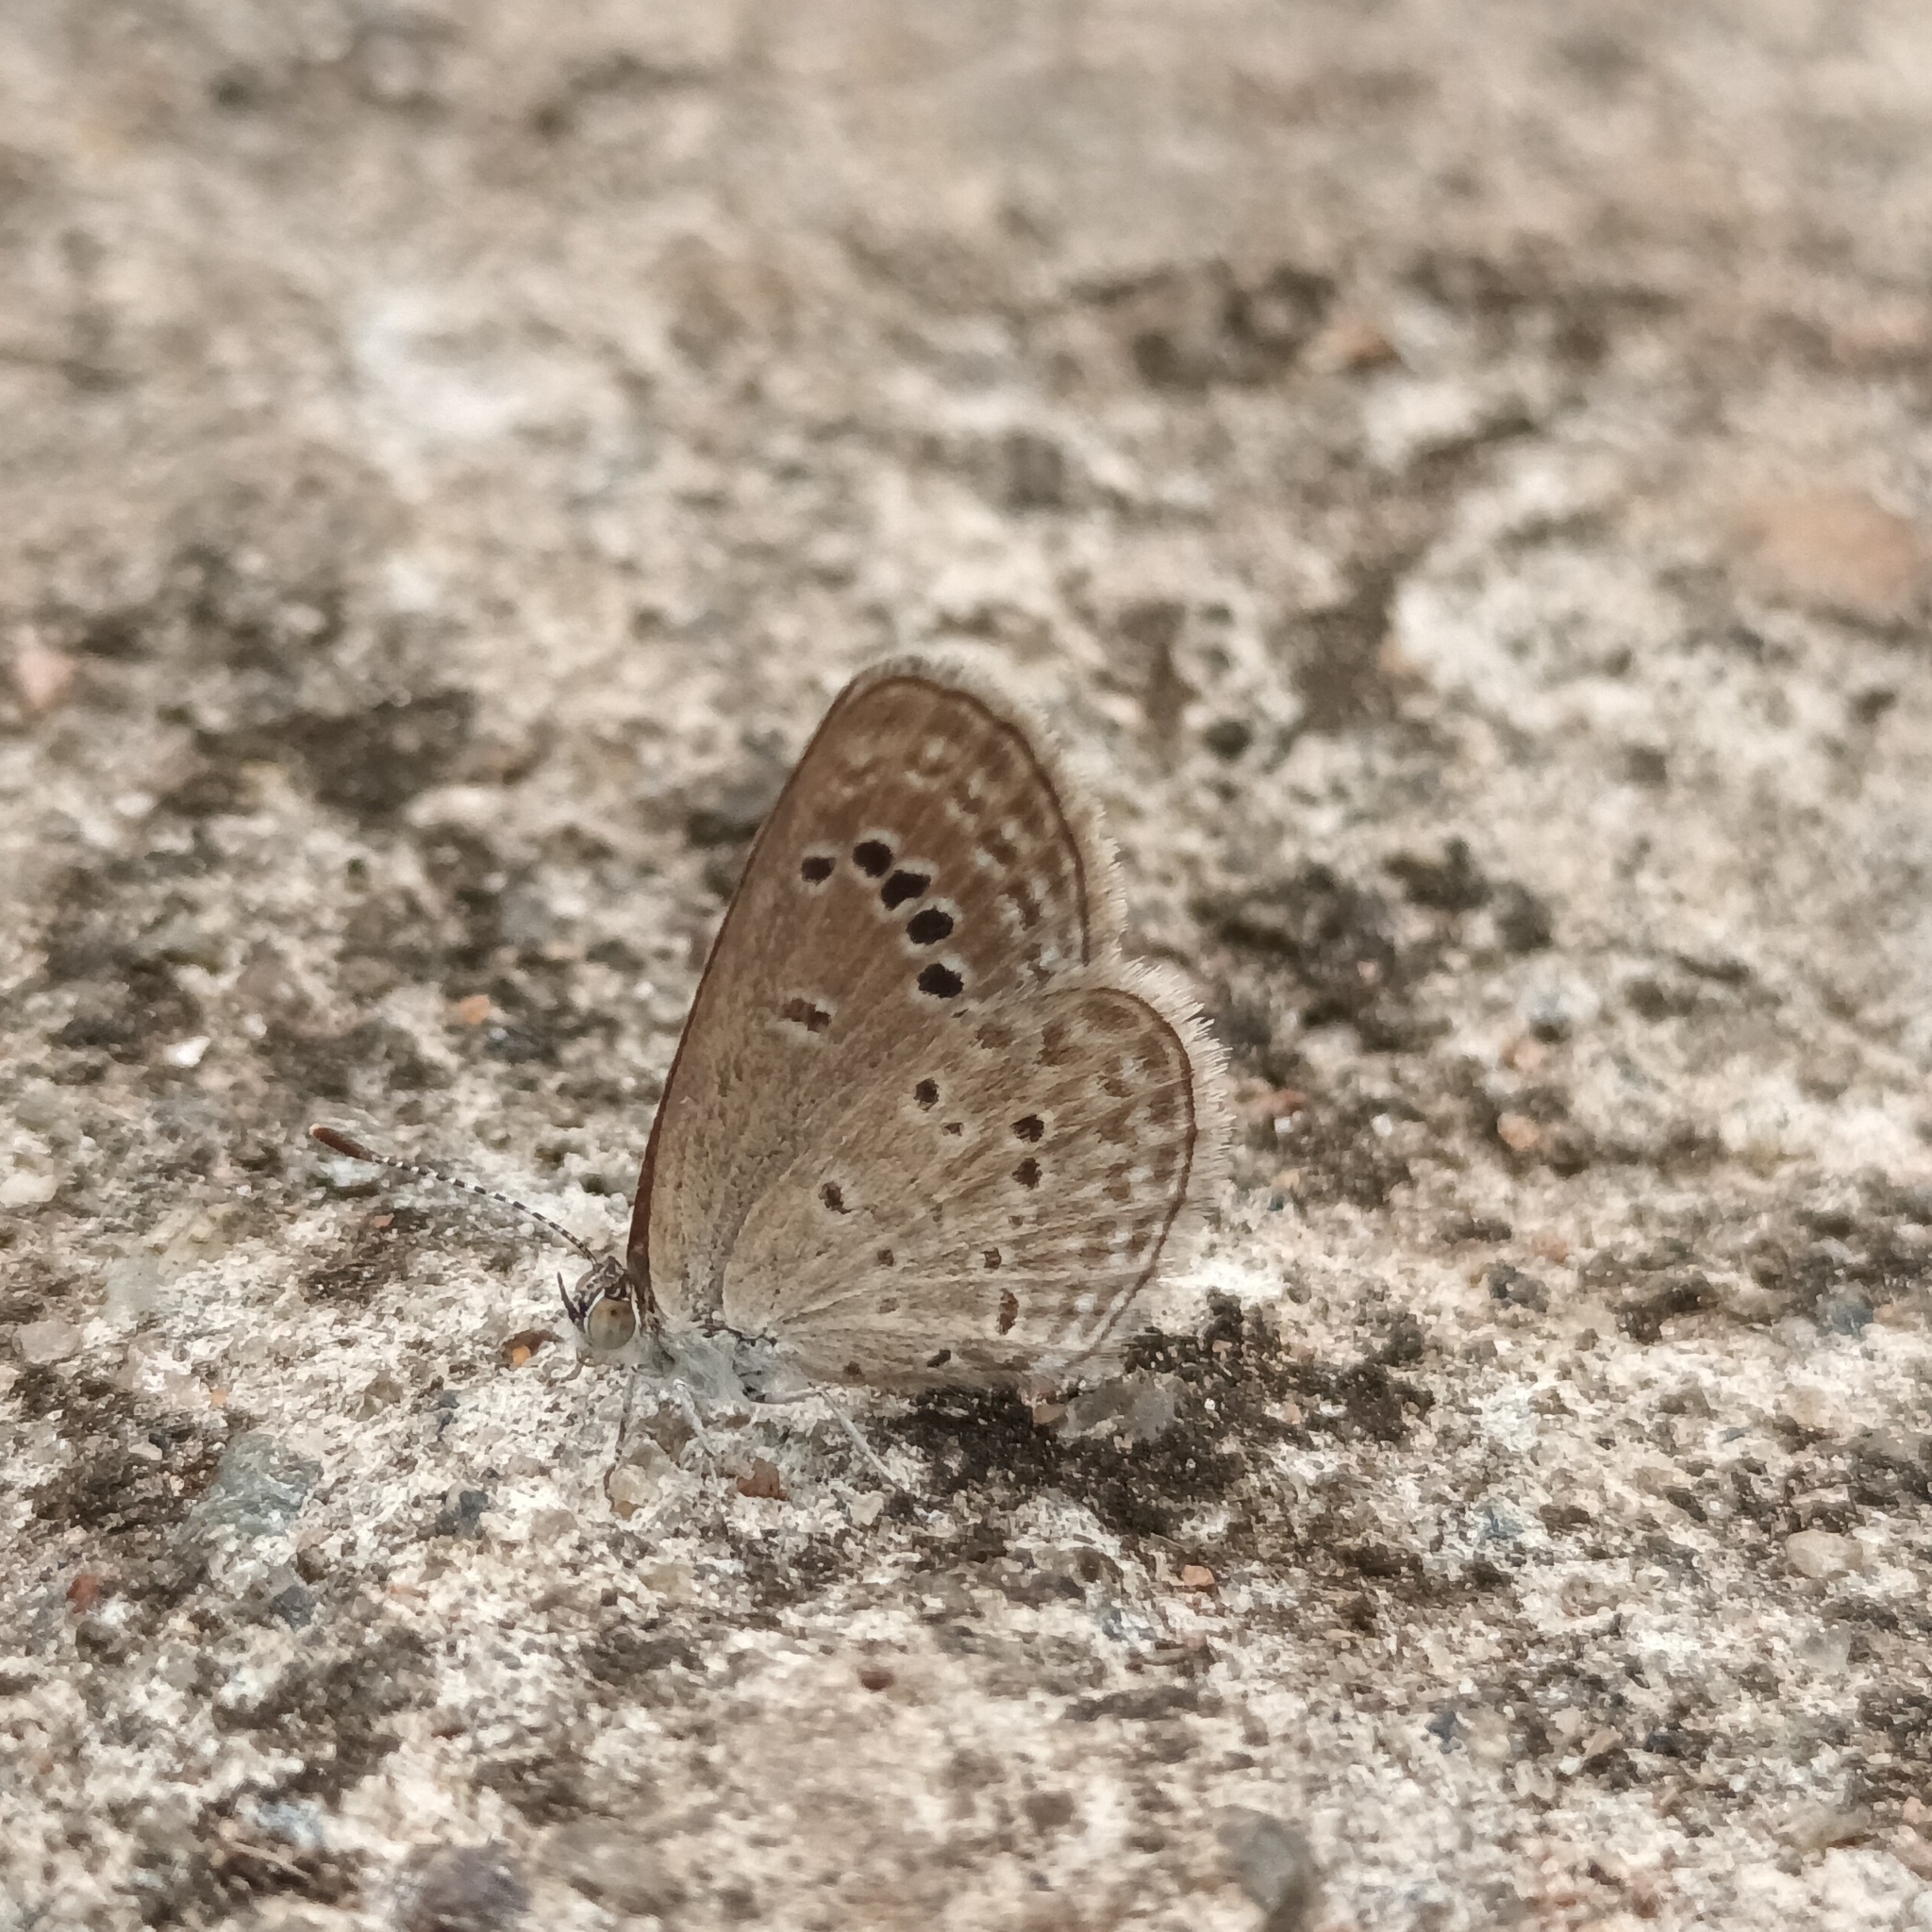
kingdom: Animalia
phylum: Arthropoda
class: Insecta
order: Lepidoptera
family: Lycaenidae
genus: Zizina
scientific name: Zizina otis
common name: Lesser grass blue
